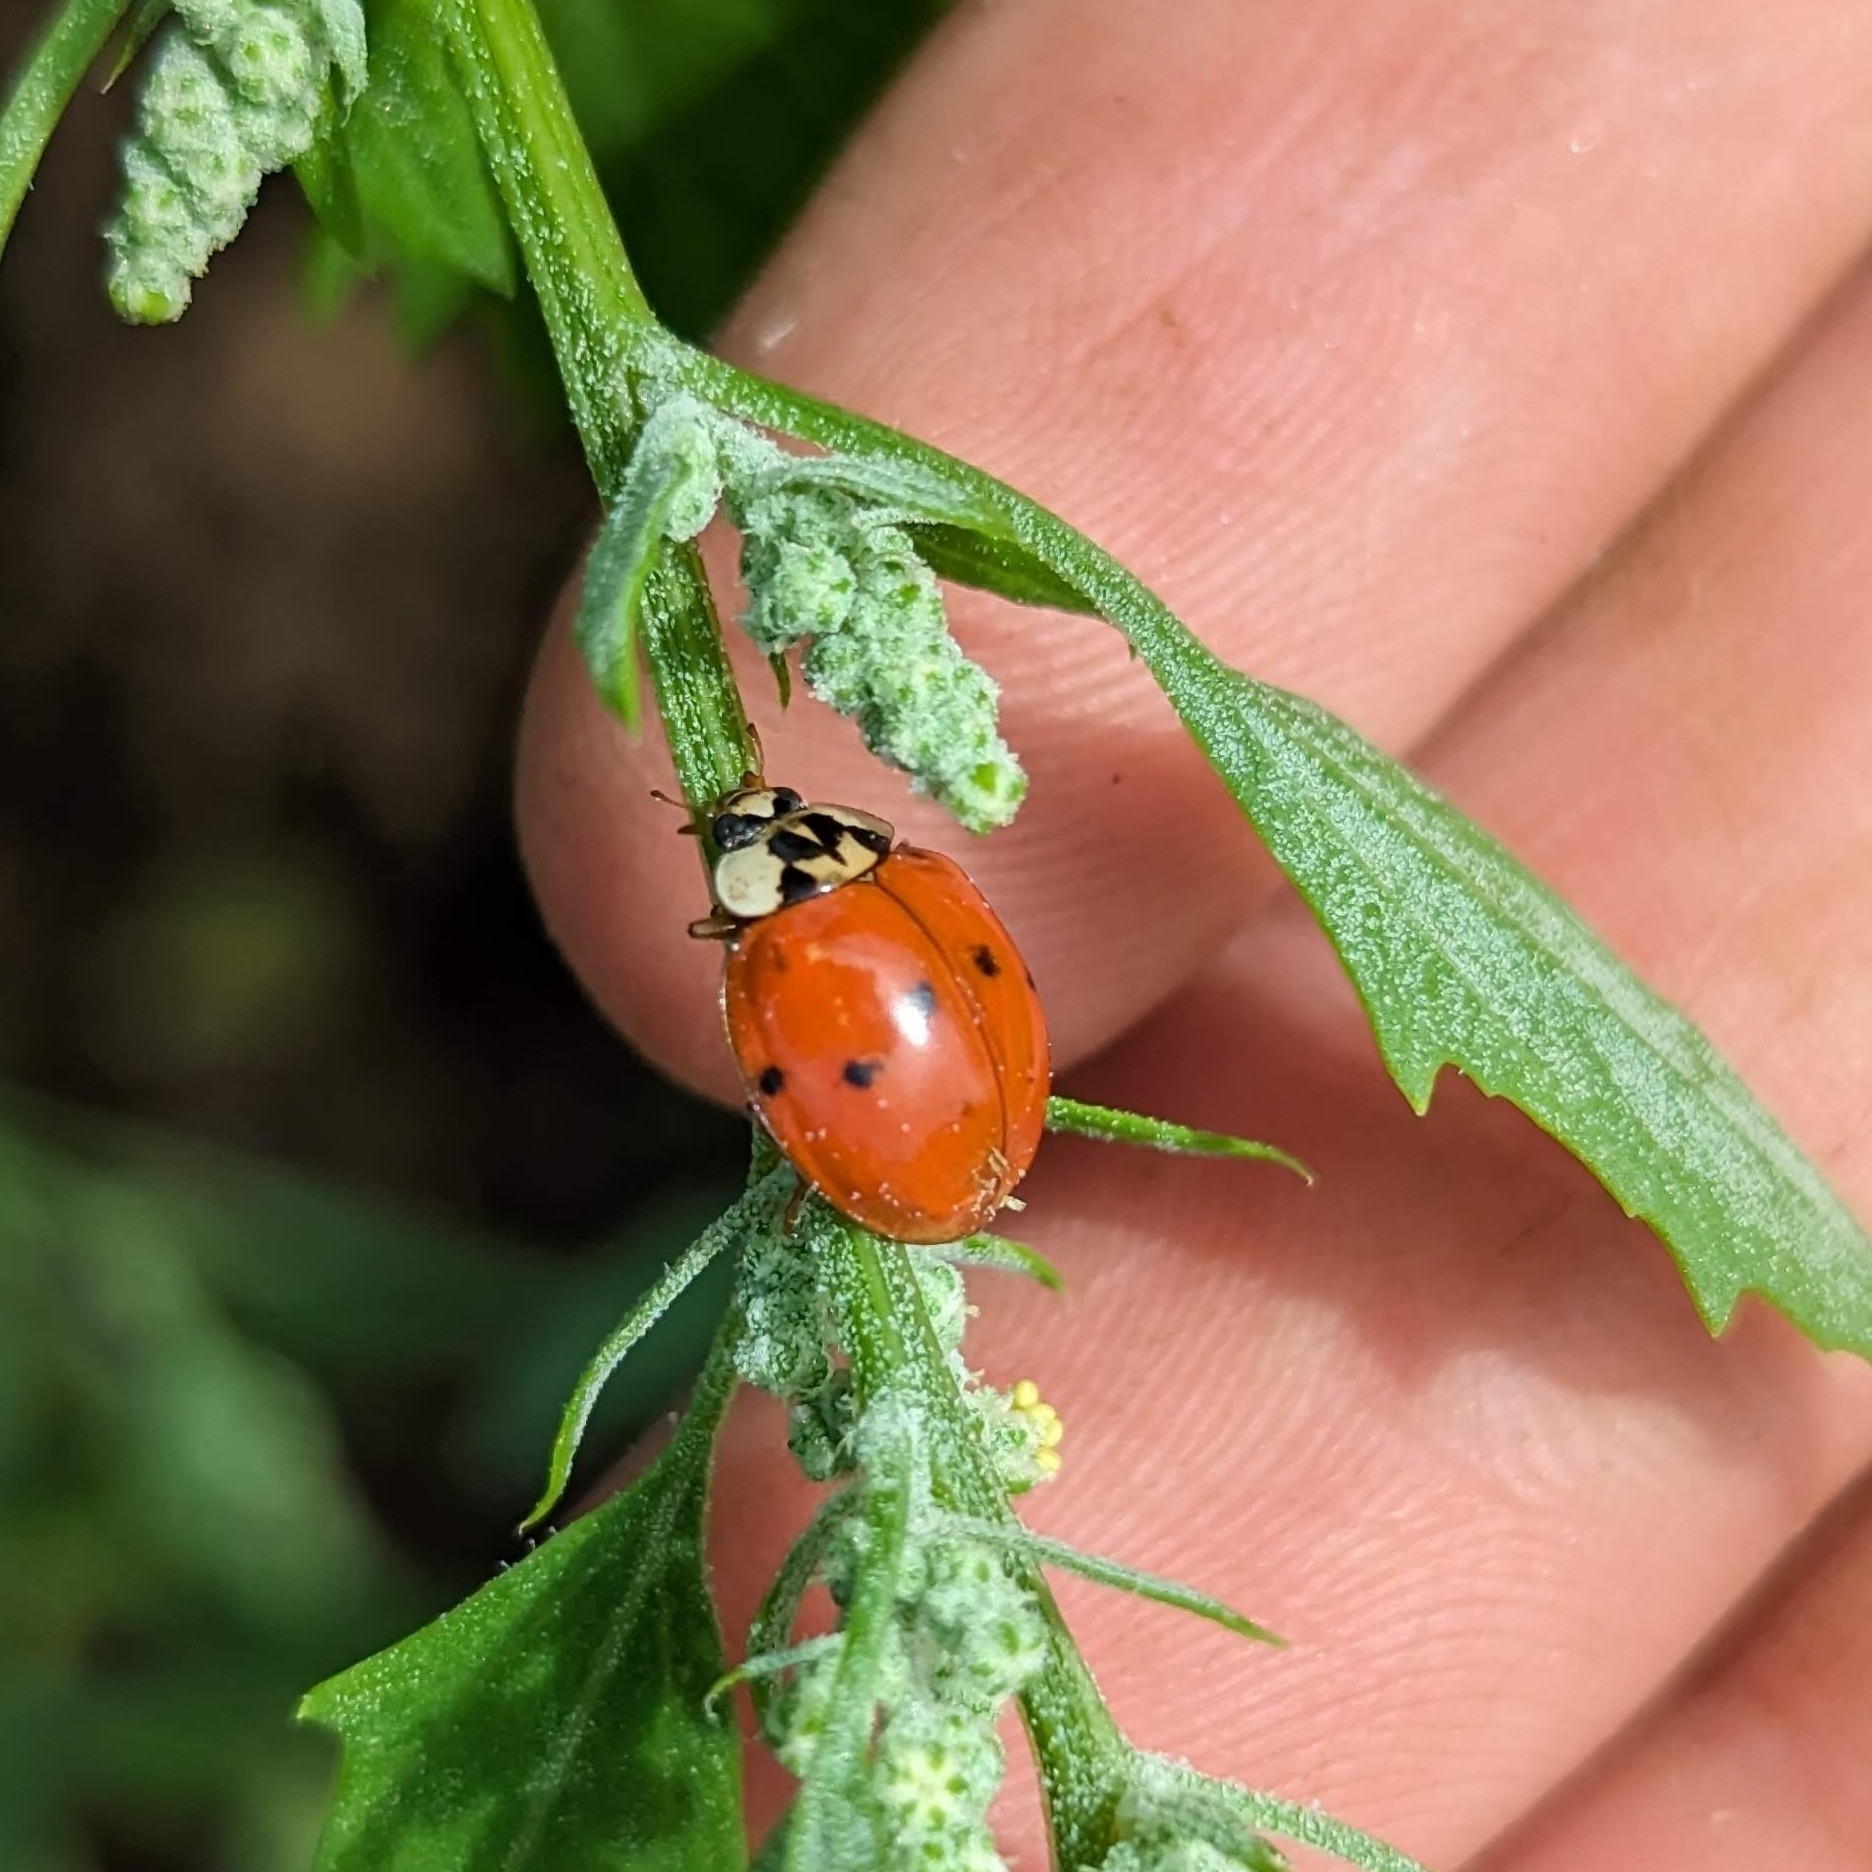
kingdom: Animalia
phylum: Arthropoda
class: Insecta
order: Coleoptera
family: Coccinellidae
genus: Harmonia
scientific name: Harmonia axyridis
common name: Harlequin ladybird
